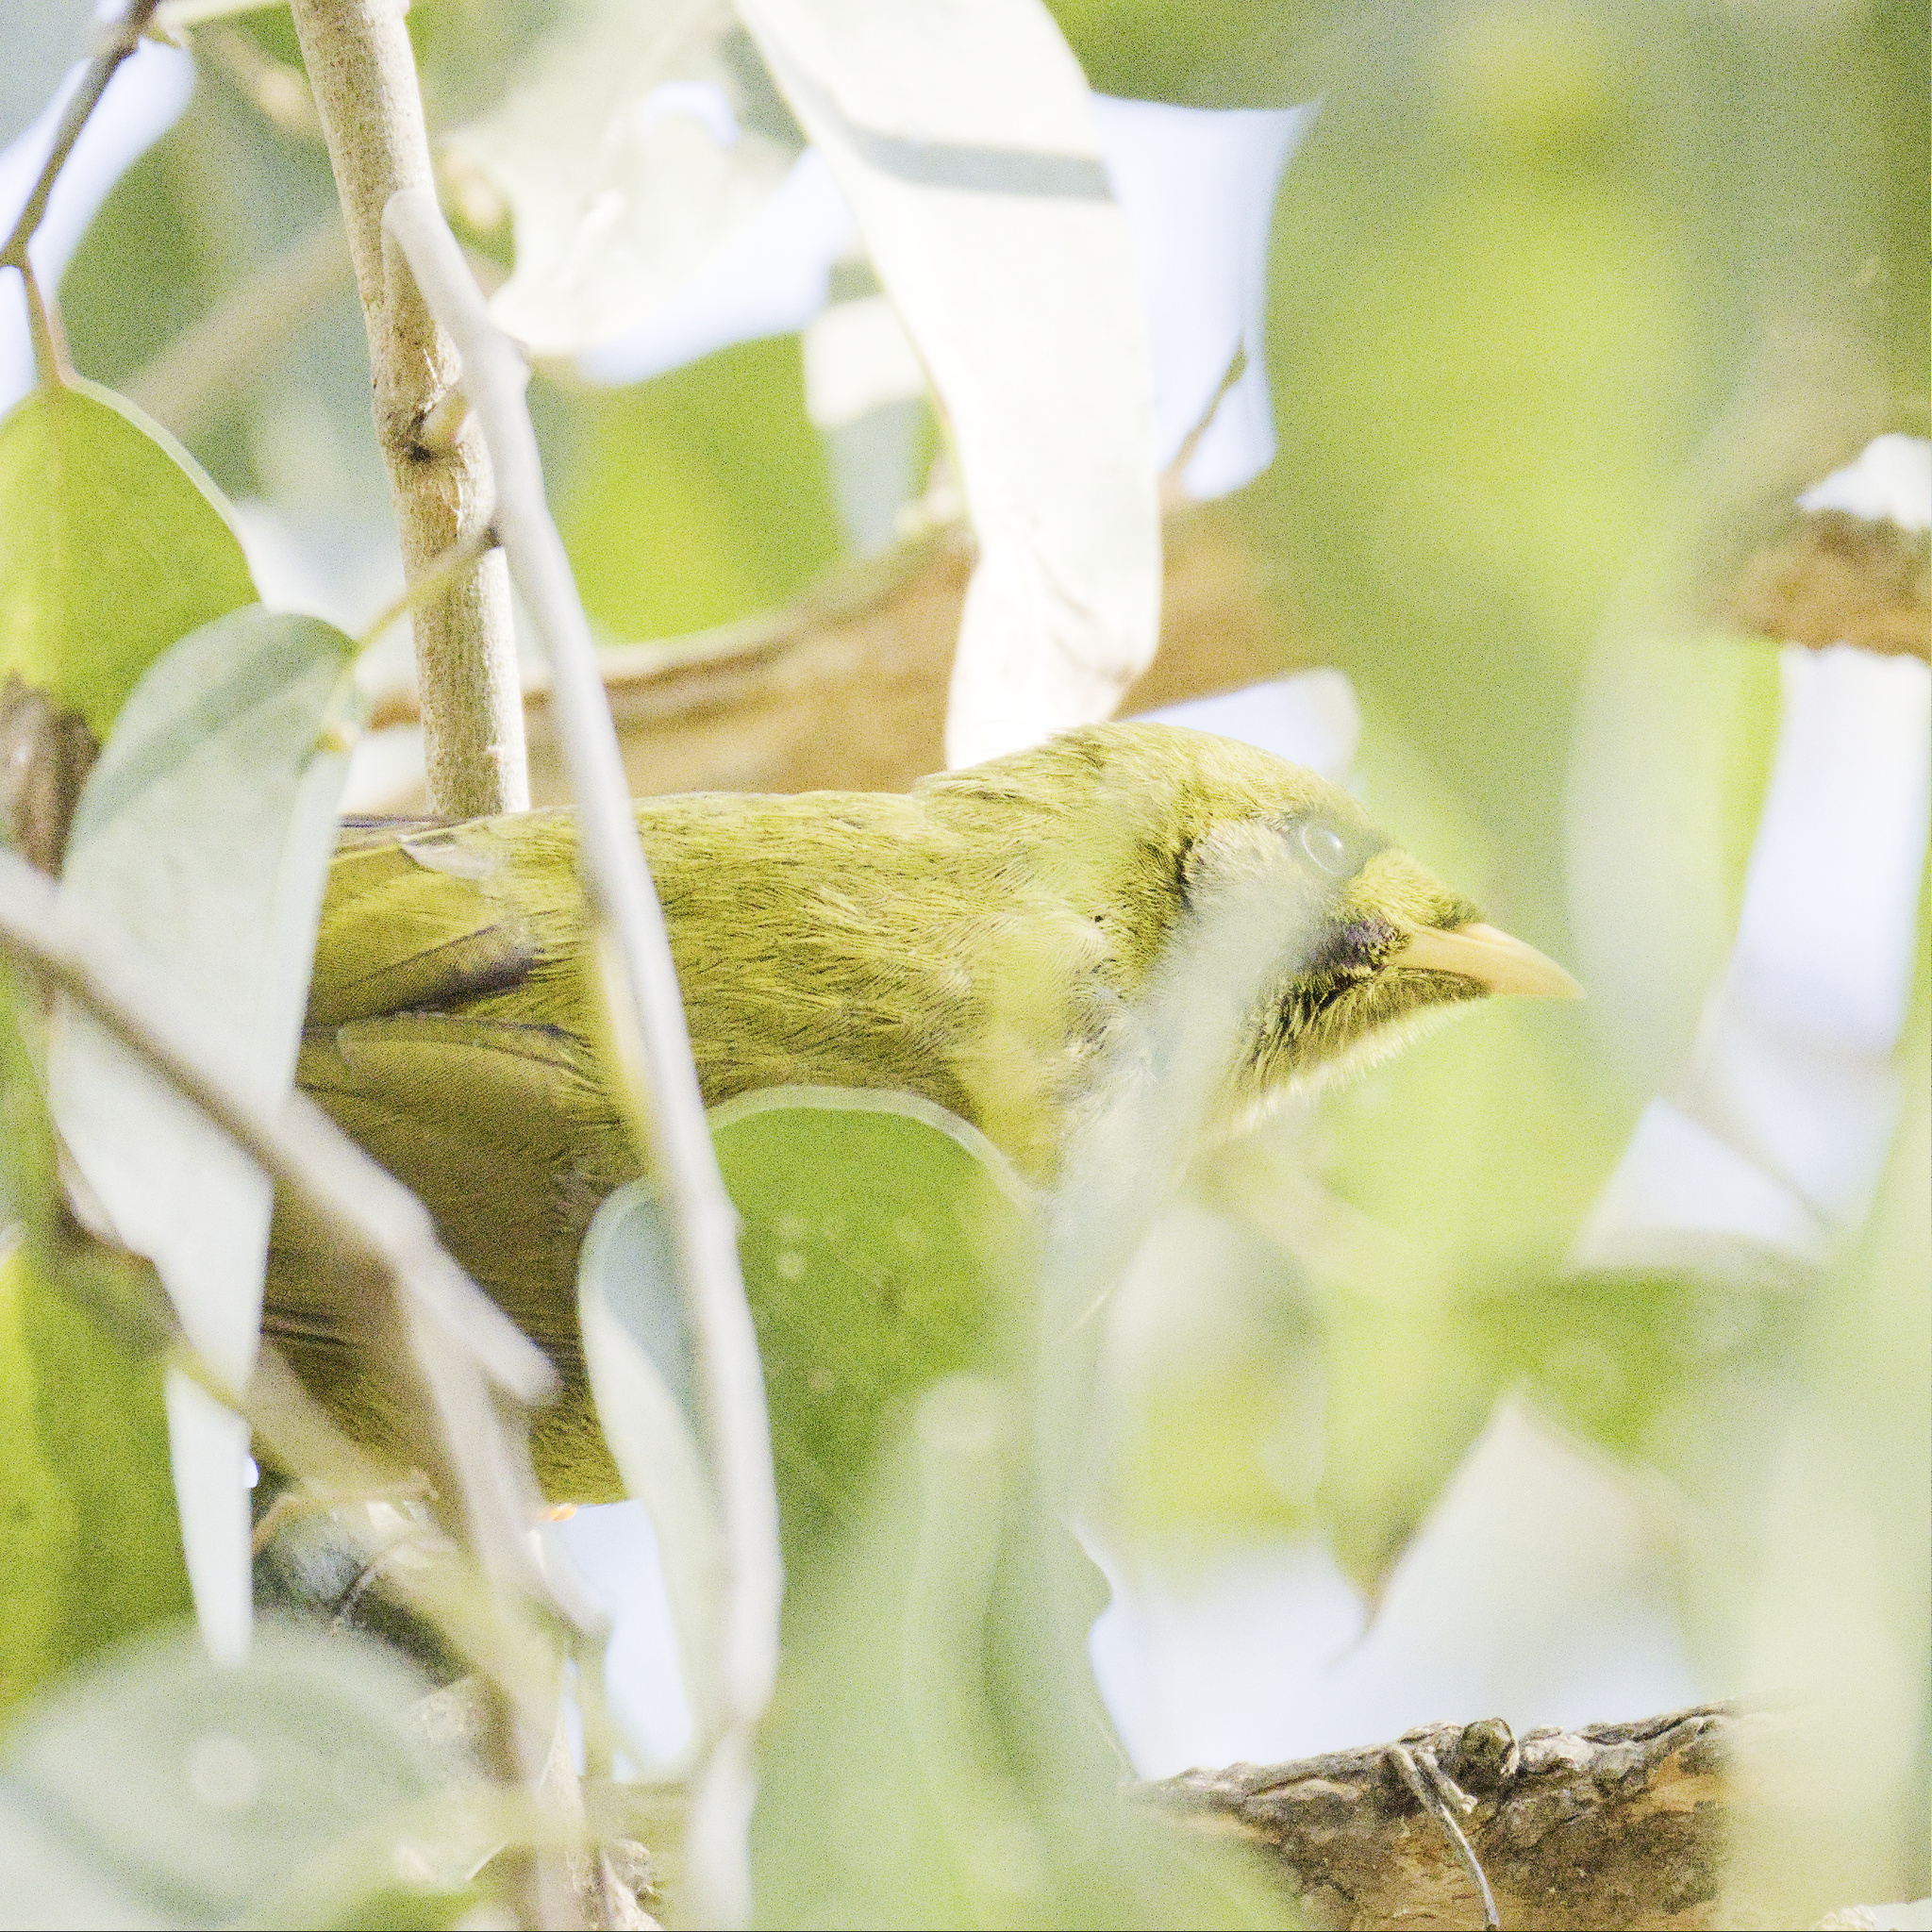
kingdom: Animalia
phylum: Chordata
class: Aves
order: Passeriformes
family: Meliphagidae
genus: Manorina
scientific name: Manorina melanophrys
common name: Bell miner
